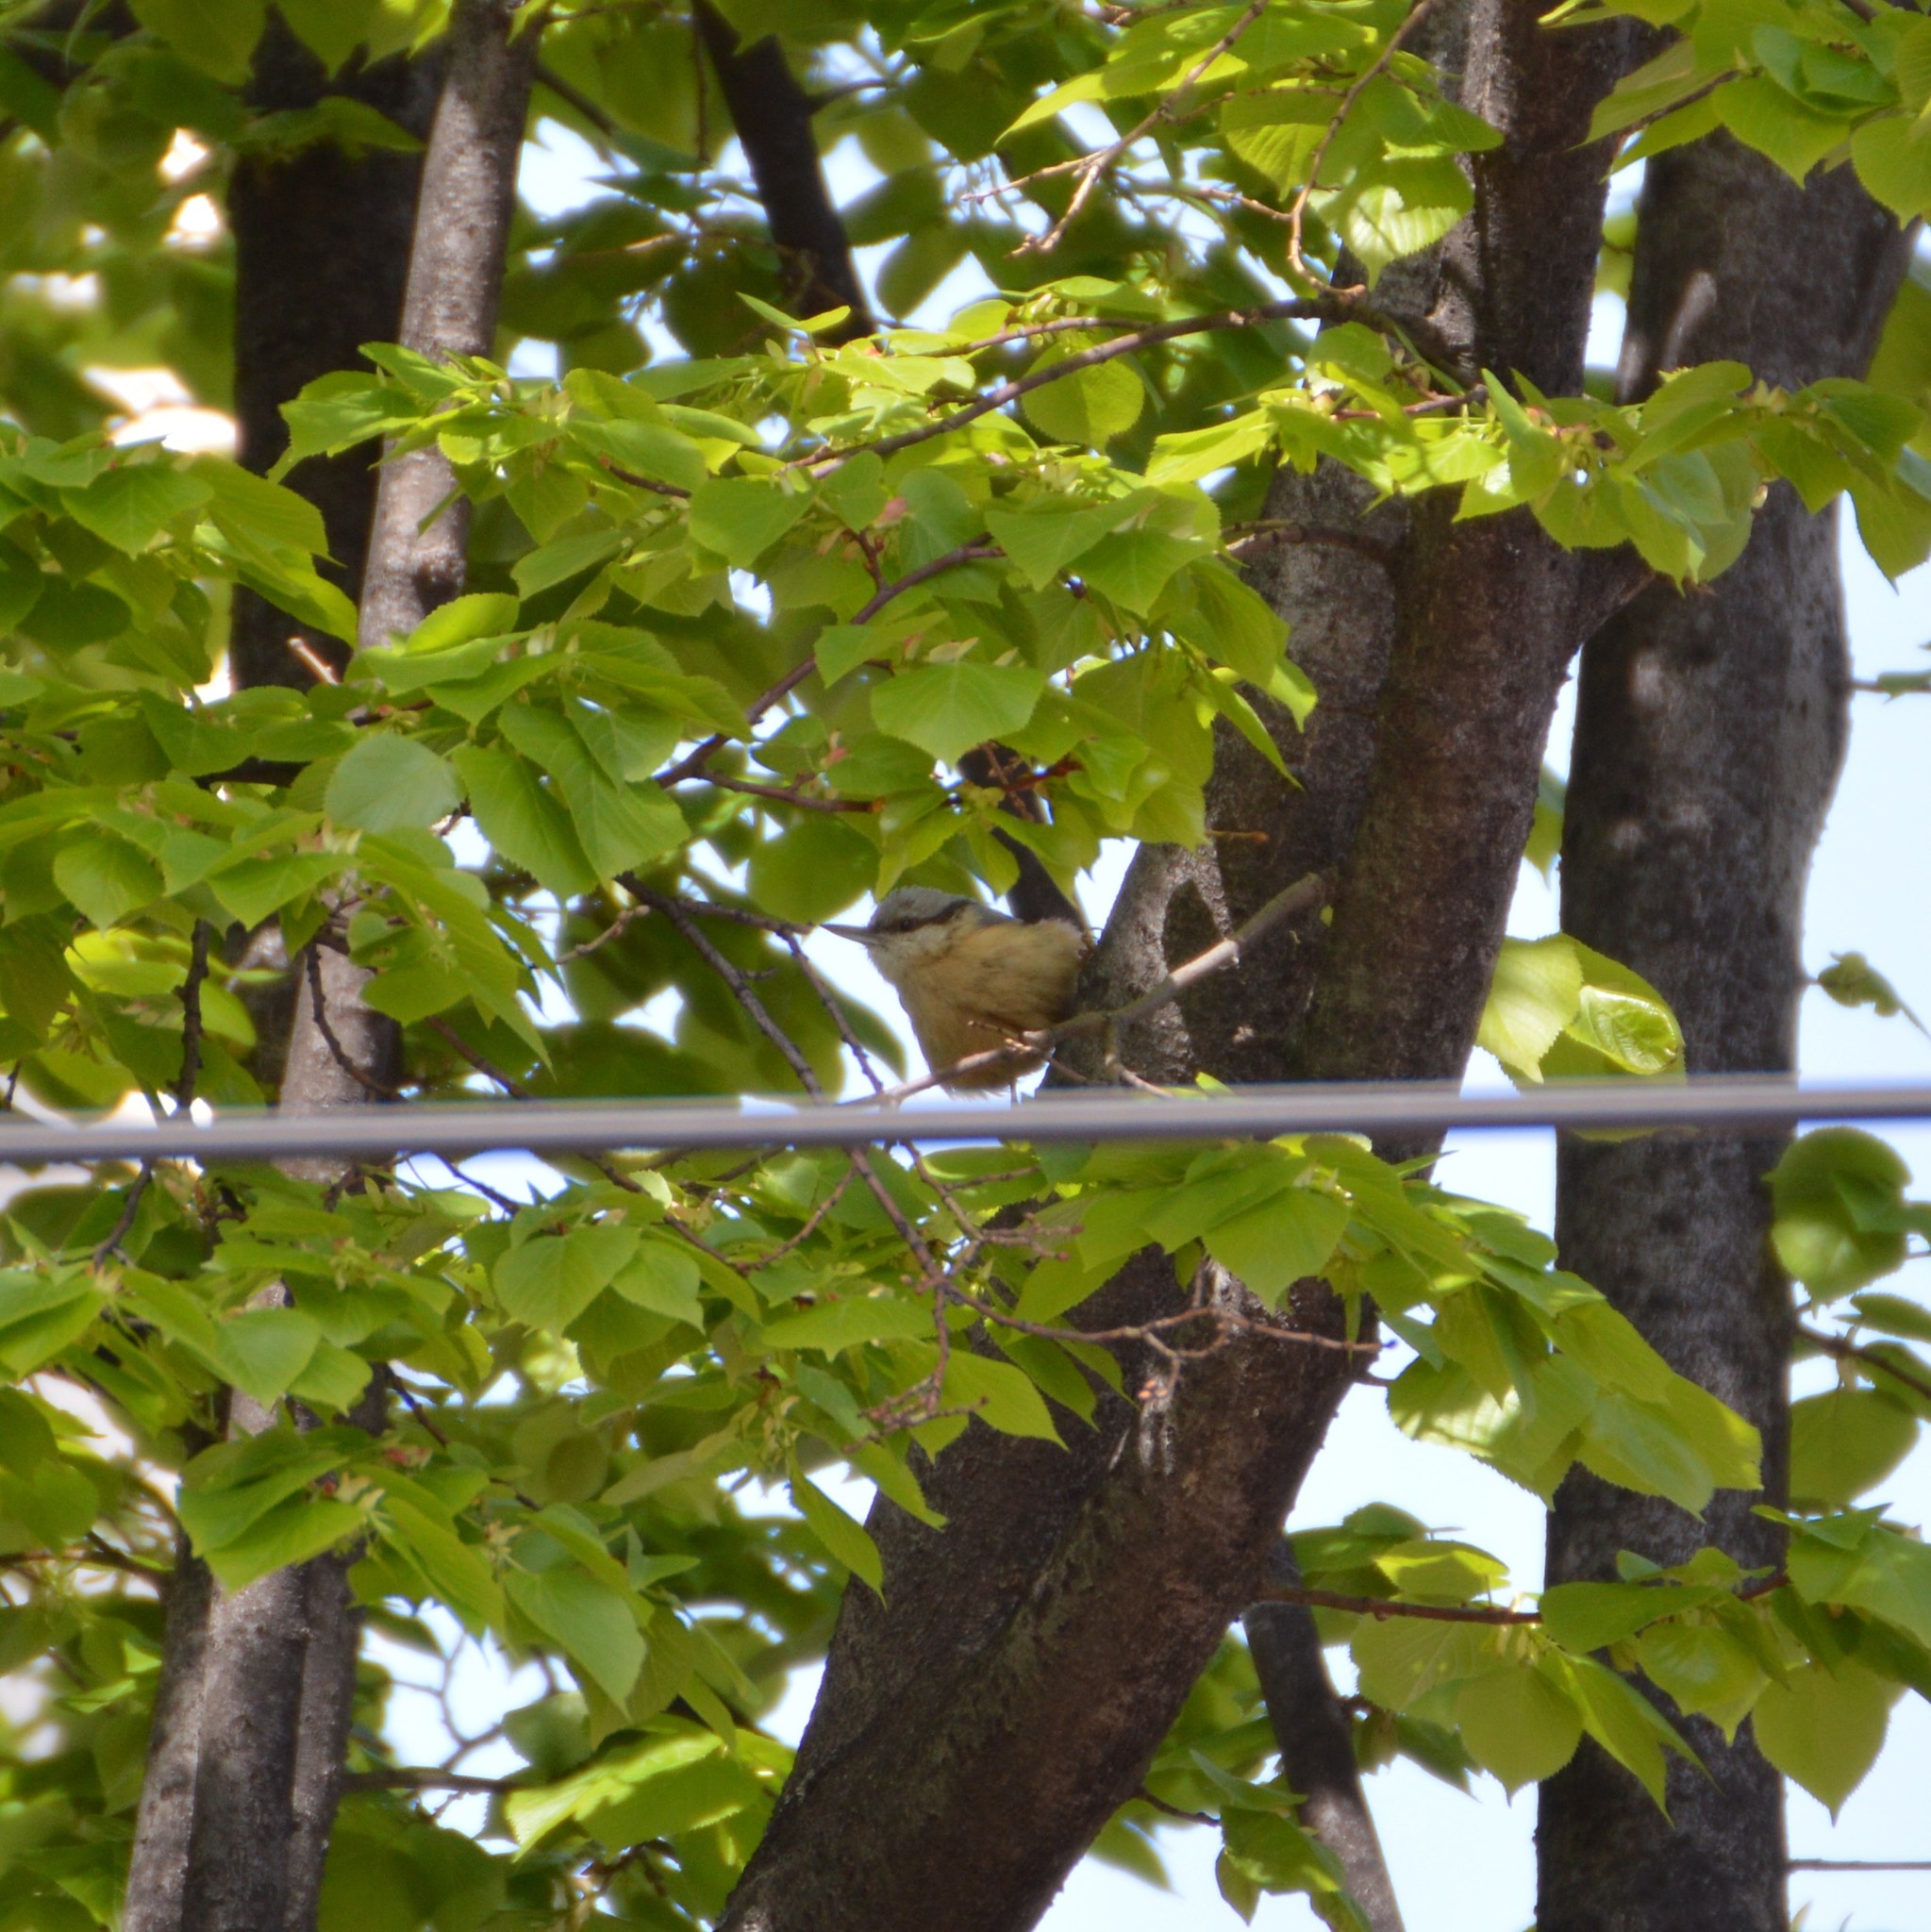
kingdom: Animalia
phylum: Chordata
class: Aves
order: Passeriformes
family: Sittidae
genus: Sitta
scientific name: Sitta europaea
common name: Eurasian nuthatch
